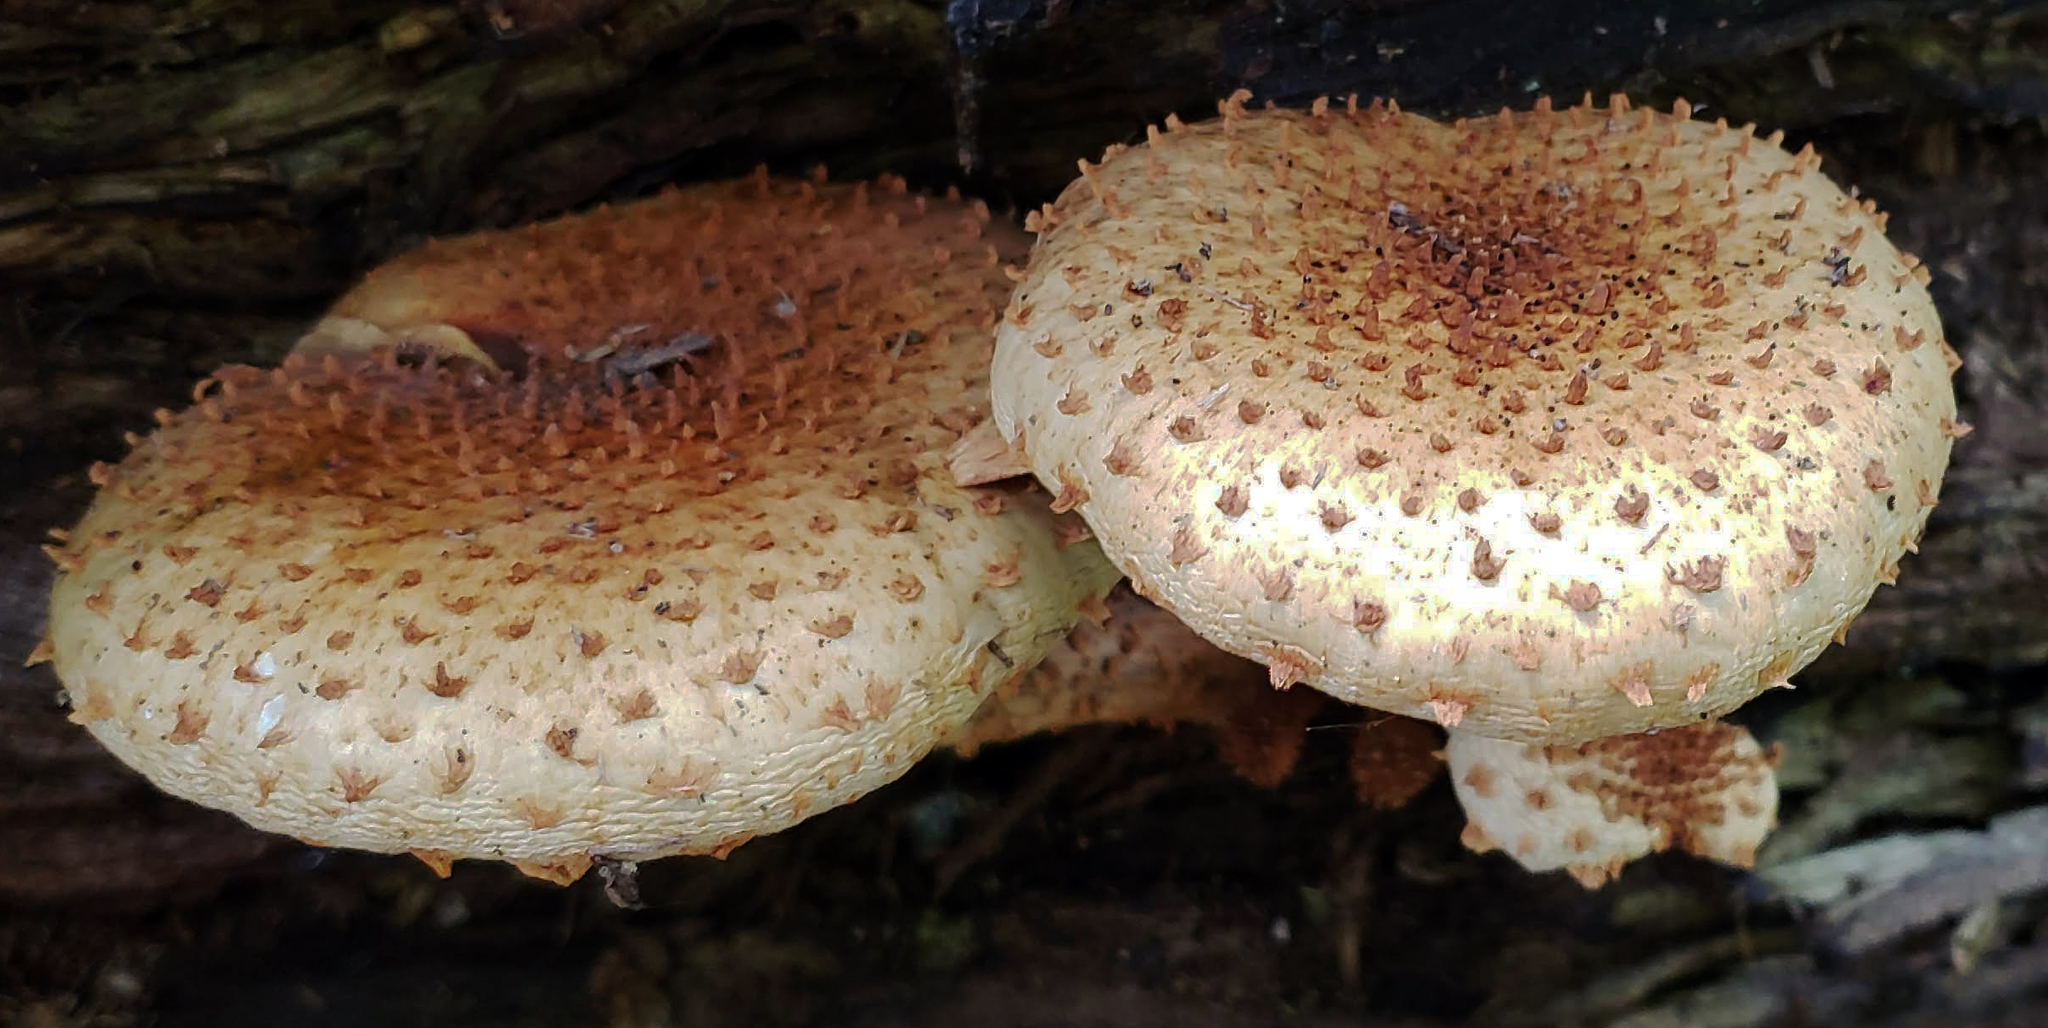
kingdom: Fungi
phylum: Basidiomycota
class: Agaricomycetes
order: Agaricales
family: Strophariaceae
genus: Pholiota
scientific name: Pholiota squarrosa
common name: Shaggy pholiota
